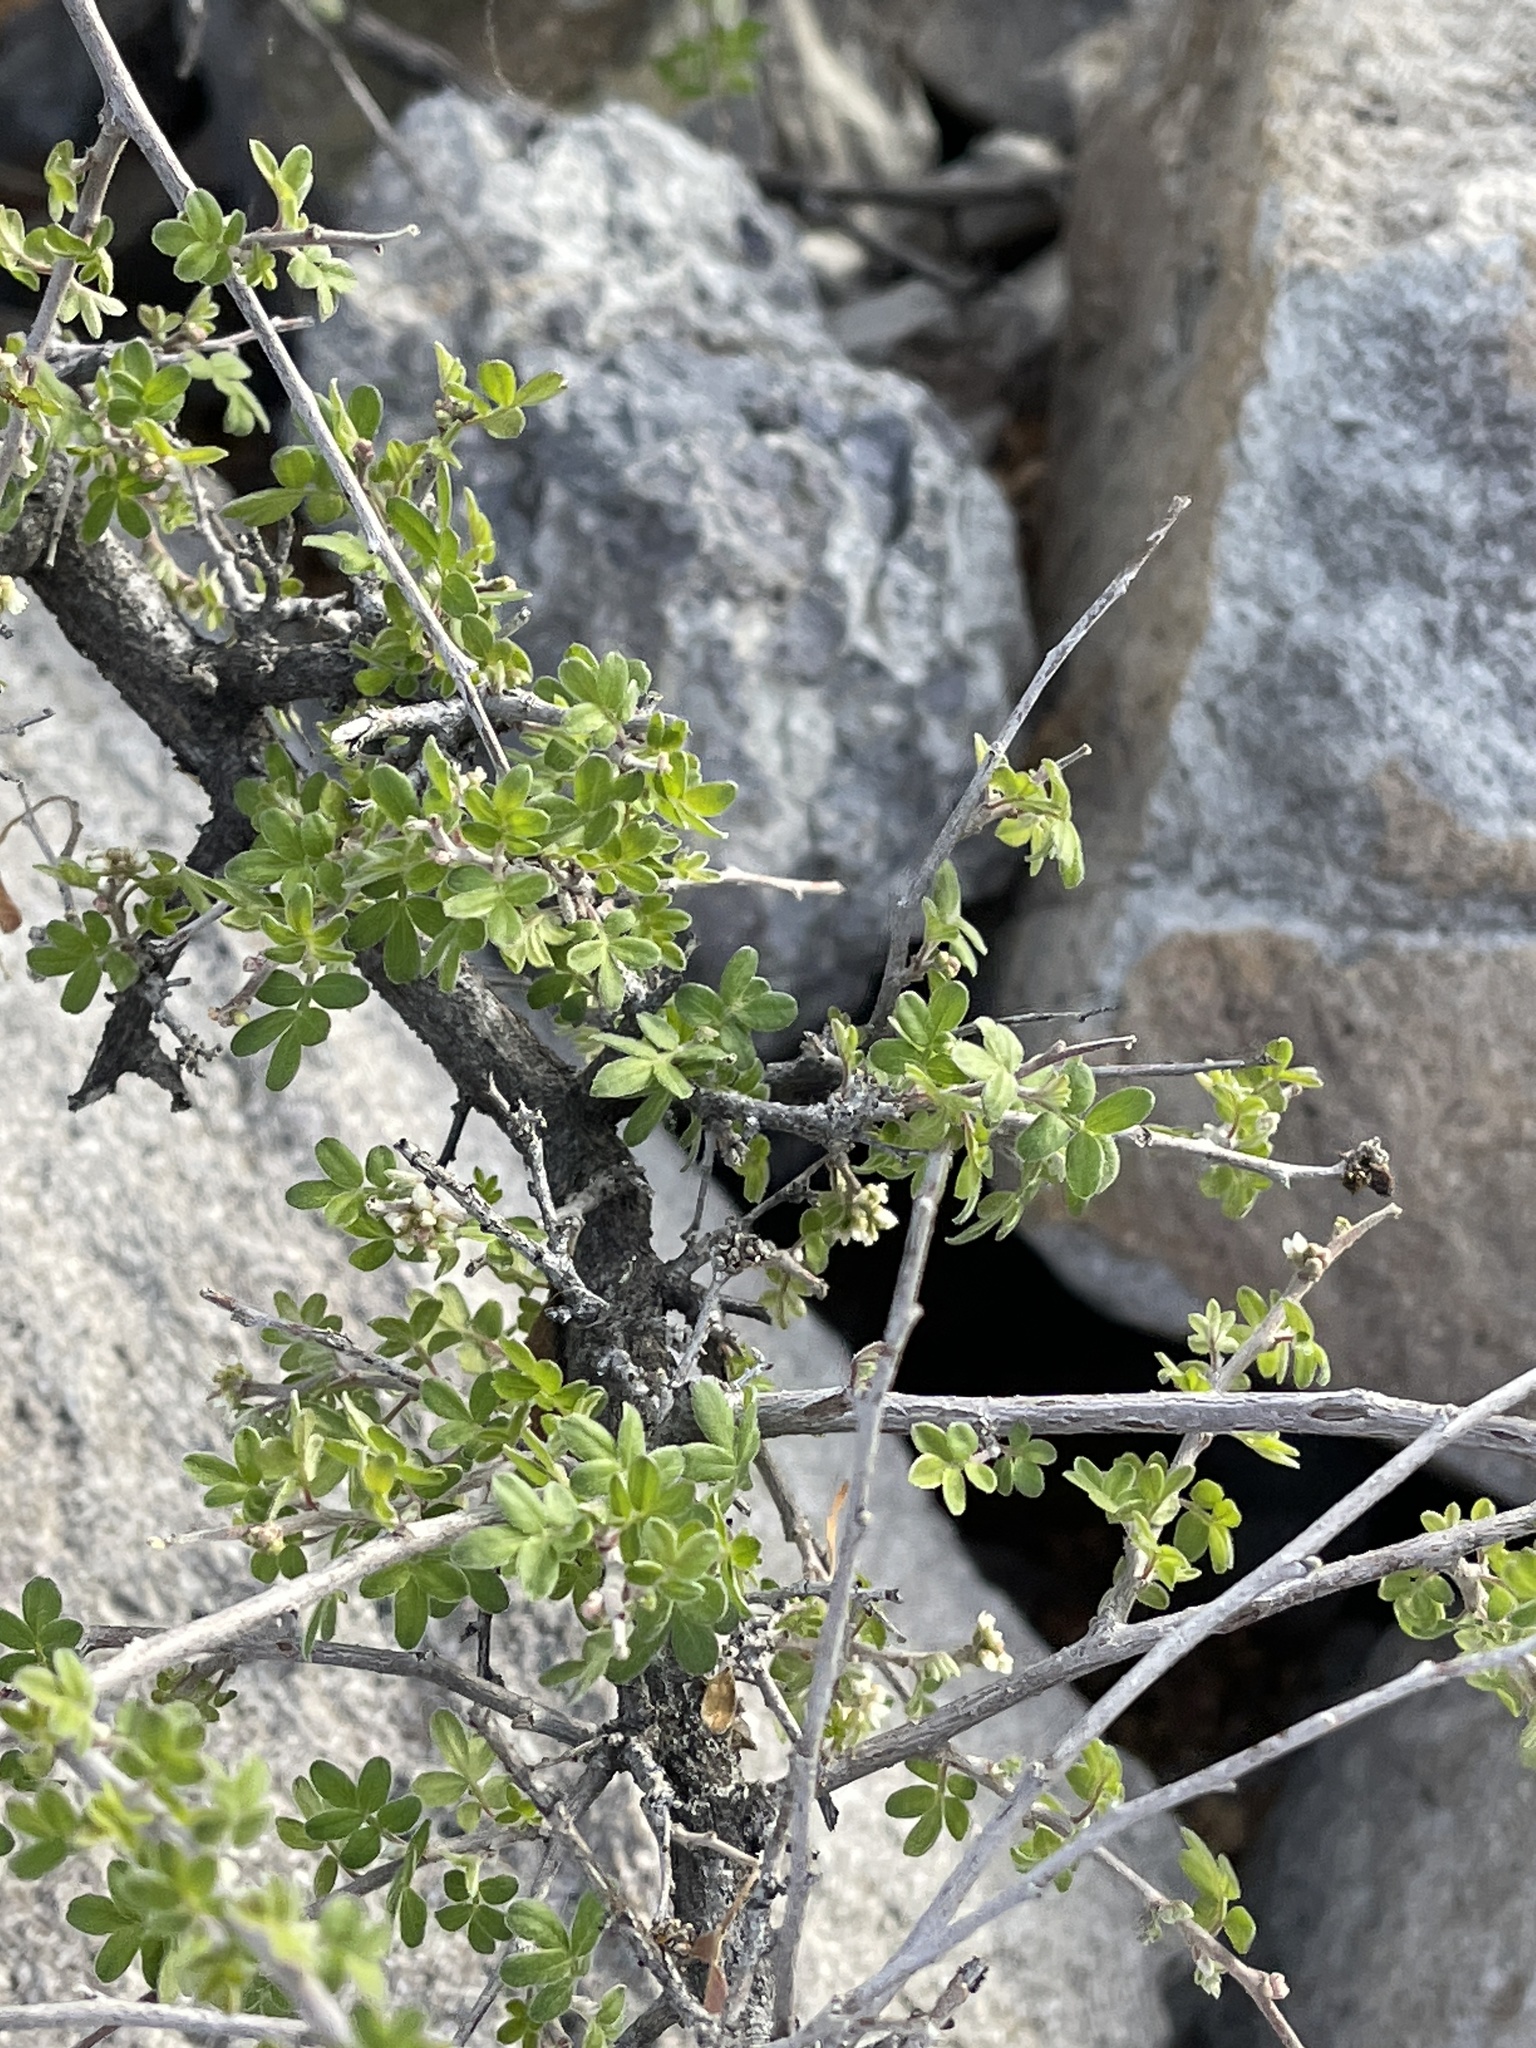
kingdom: Plantae
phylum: Tracheophyta
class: Magnoliopsida
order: Sapindales
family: Anacardiaceae
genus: Rhus
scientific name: Rhus microphylla
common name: Desert sumac
